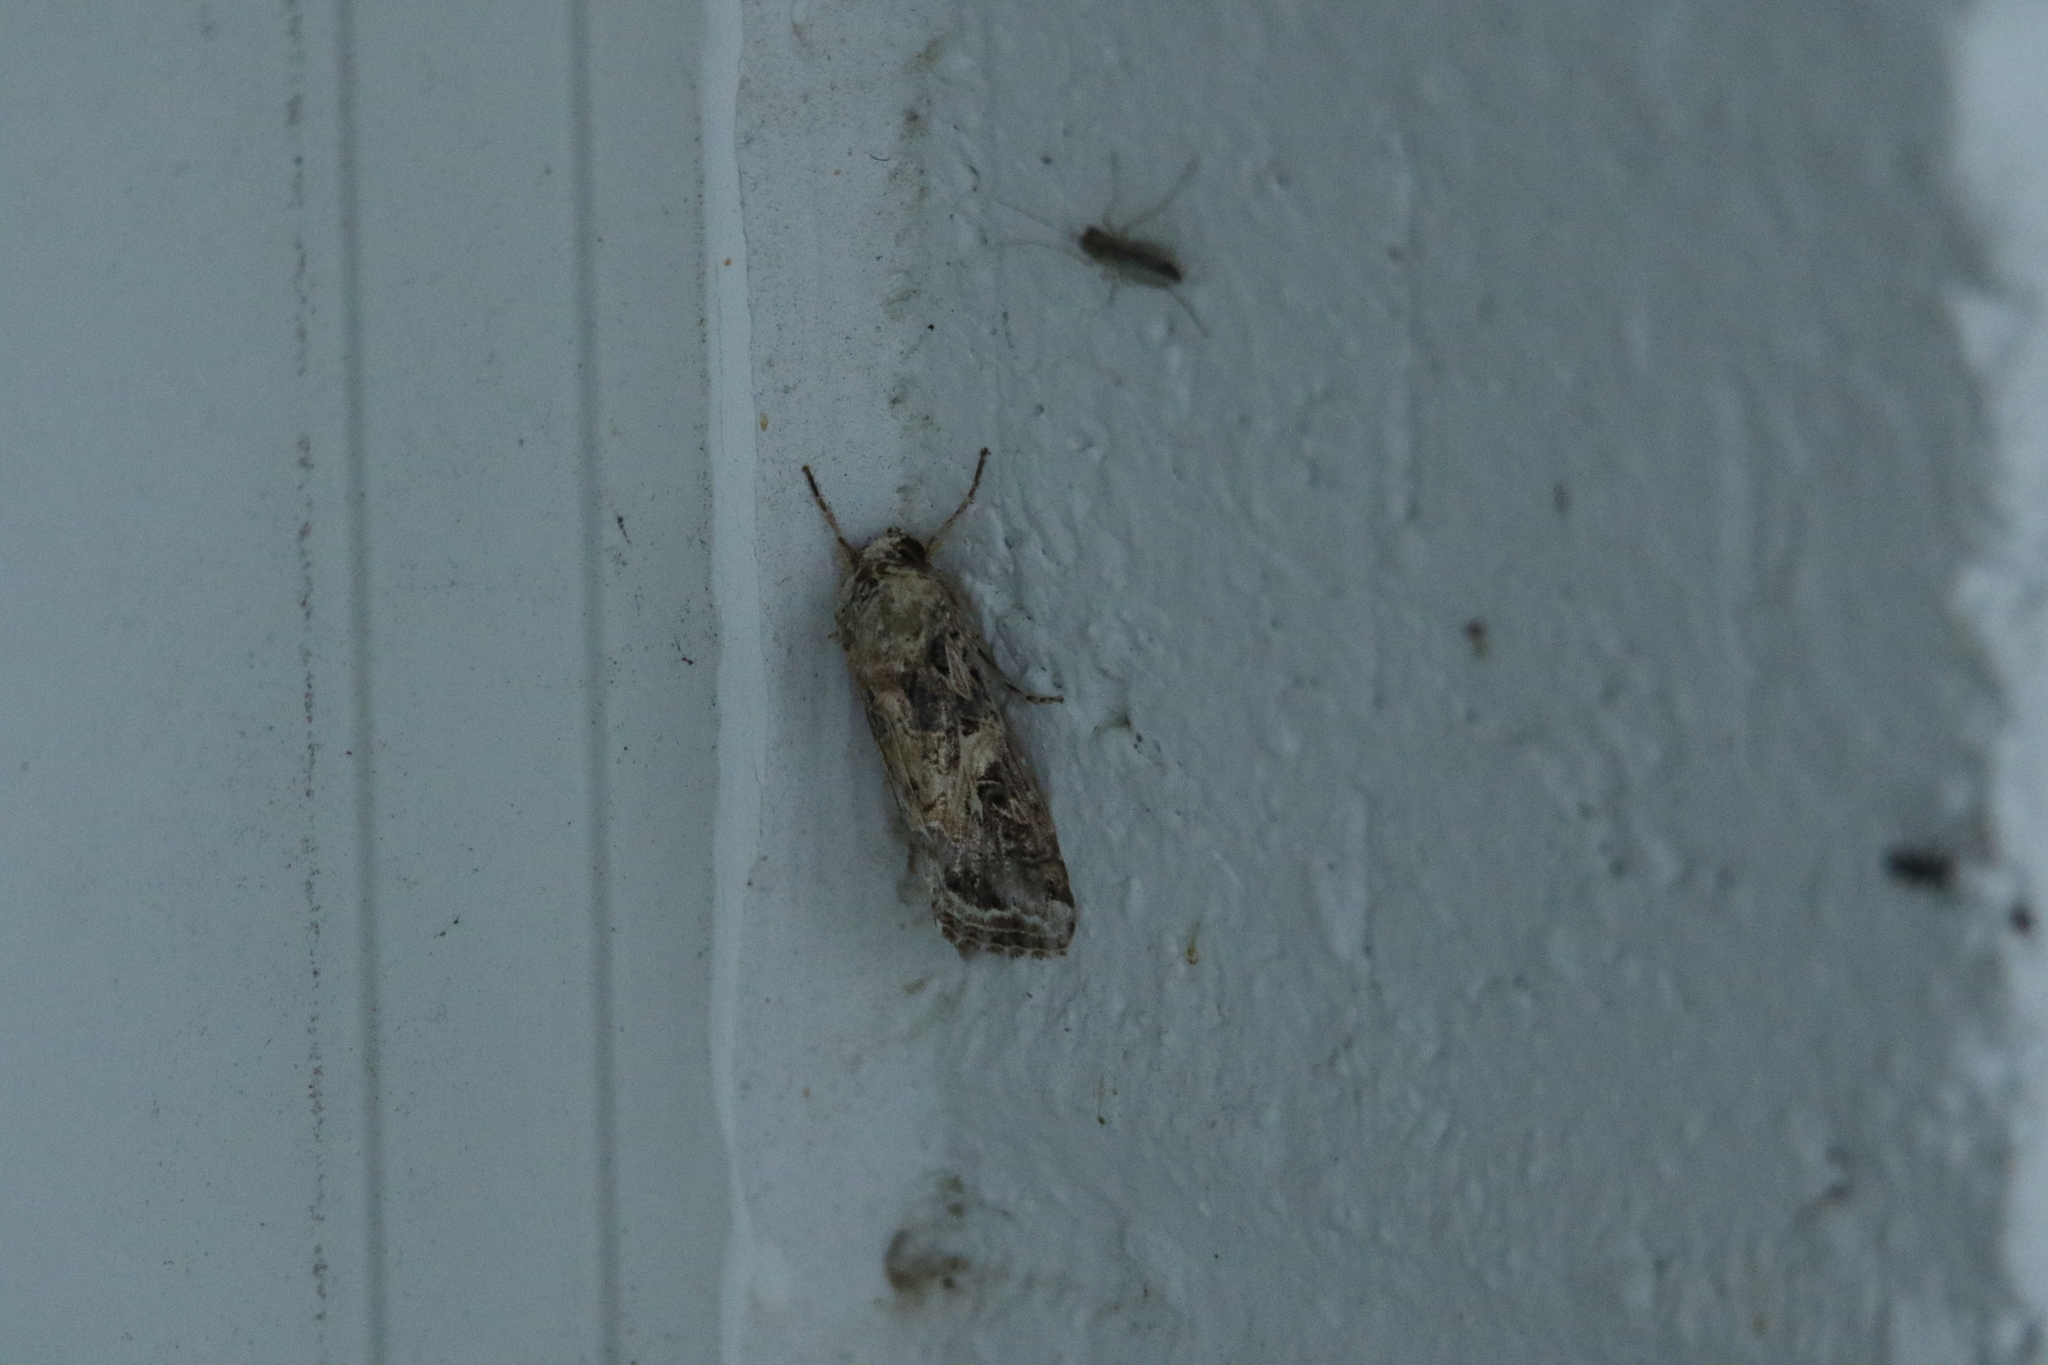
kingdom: Animalia
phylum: Arthropoda
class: Insecta
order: Lepidoptera
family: Noctuidae
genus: Spodoptera
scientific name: Spodoptera ornithogalli
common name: Yellow-striped armyworm
